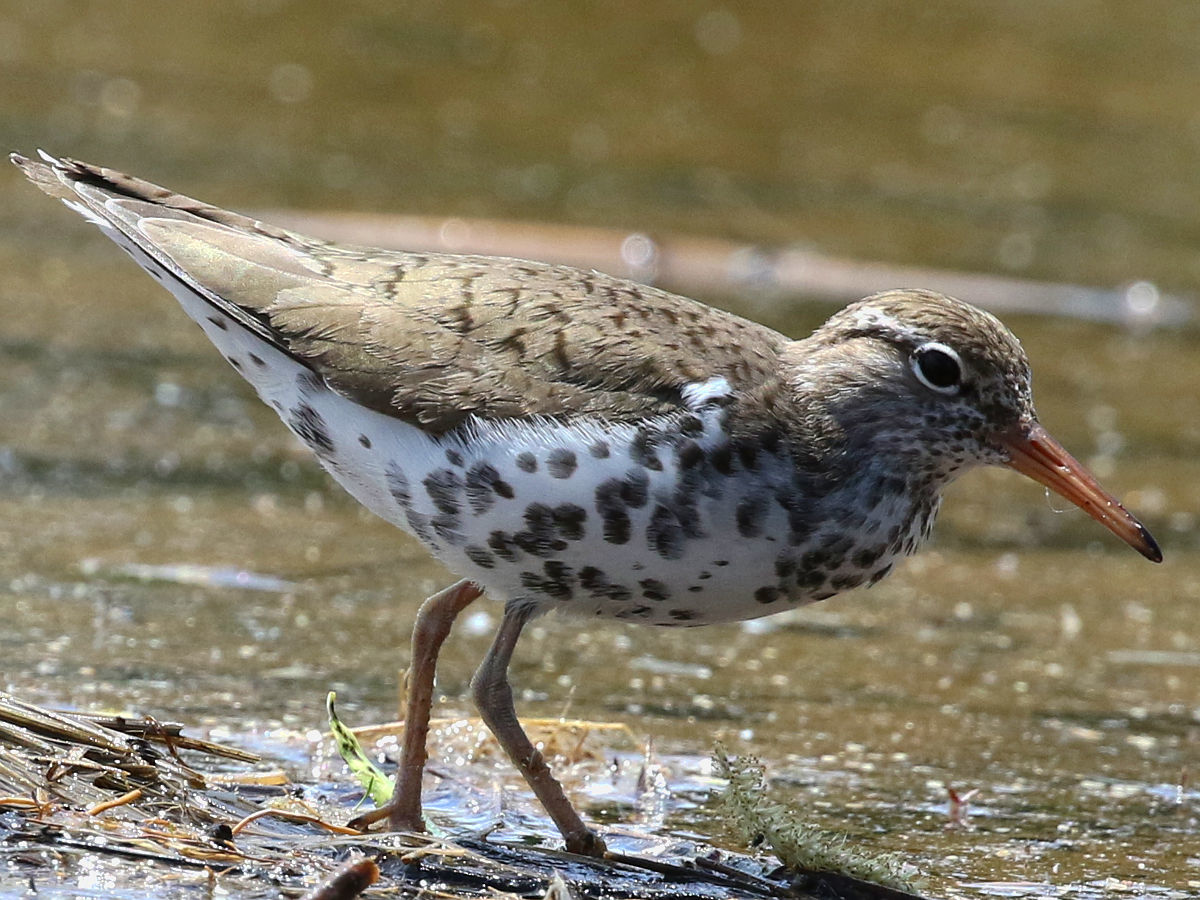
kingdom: Animalia
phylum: Chordata
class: Aves
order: Charadriiformes
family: Scolopacidae
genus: Actitis
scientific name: Actitis macularius
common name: Spotted sandpiper
